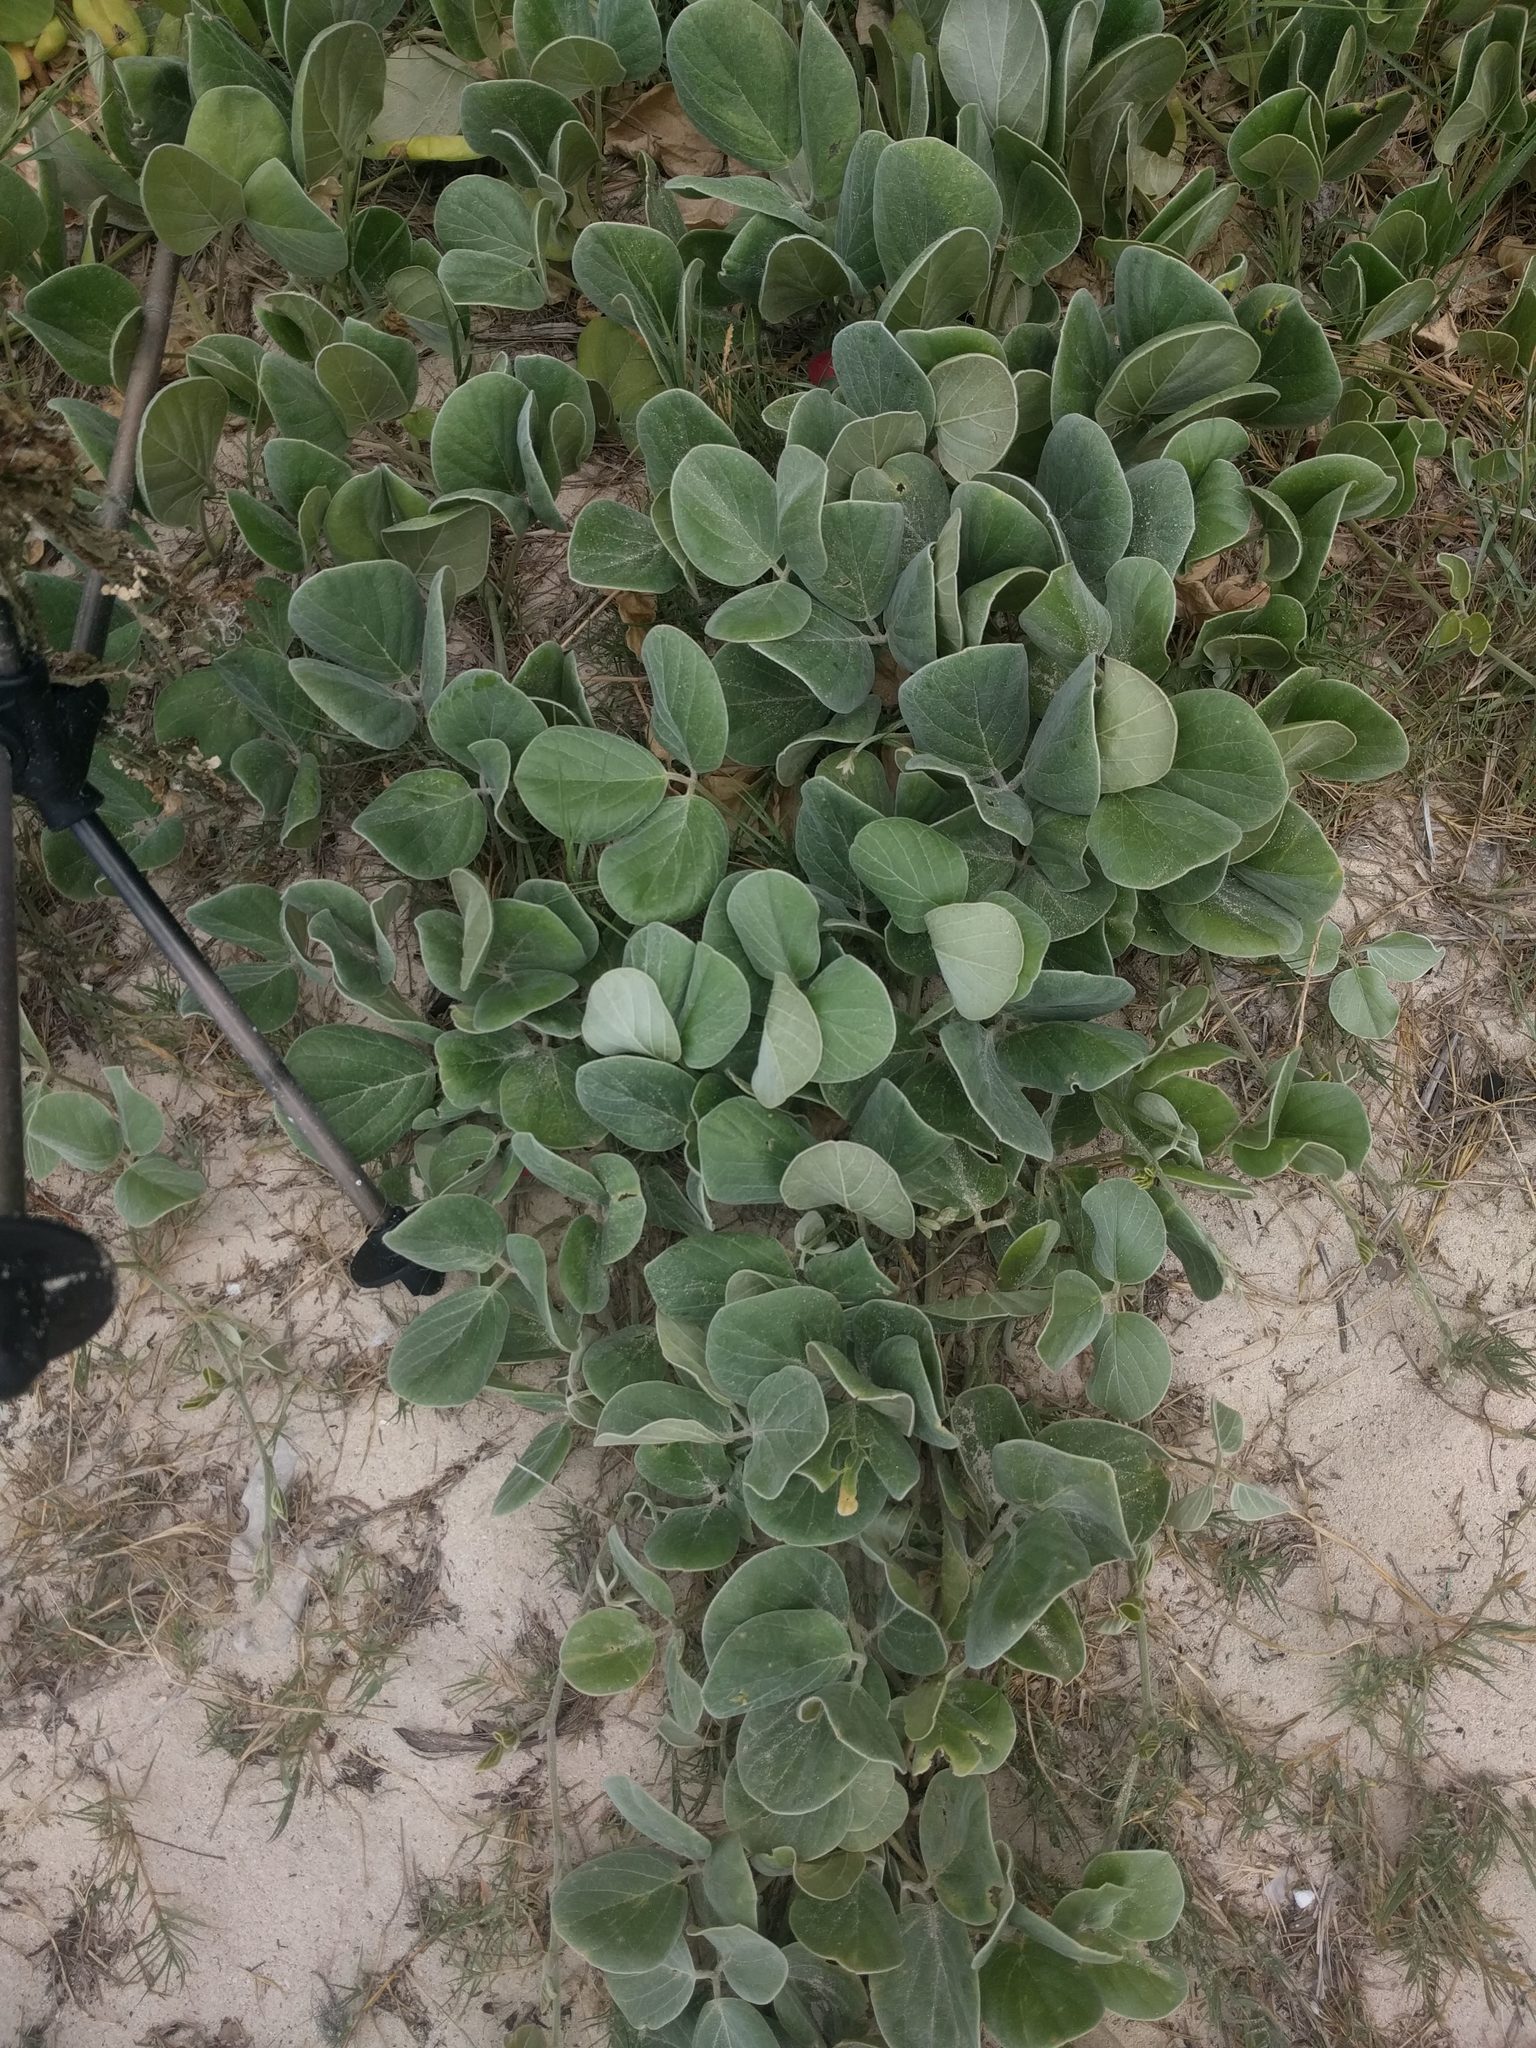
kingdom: Plantae
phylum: Tracheophyta
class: Magnoliopsida
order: Fabales
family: Fabaceae
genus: Canavalia
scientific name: Canavalia sericea
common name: Silky jackbean
